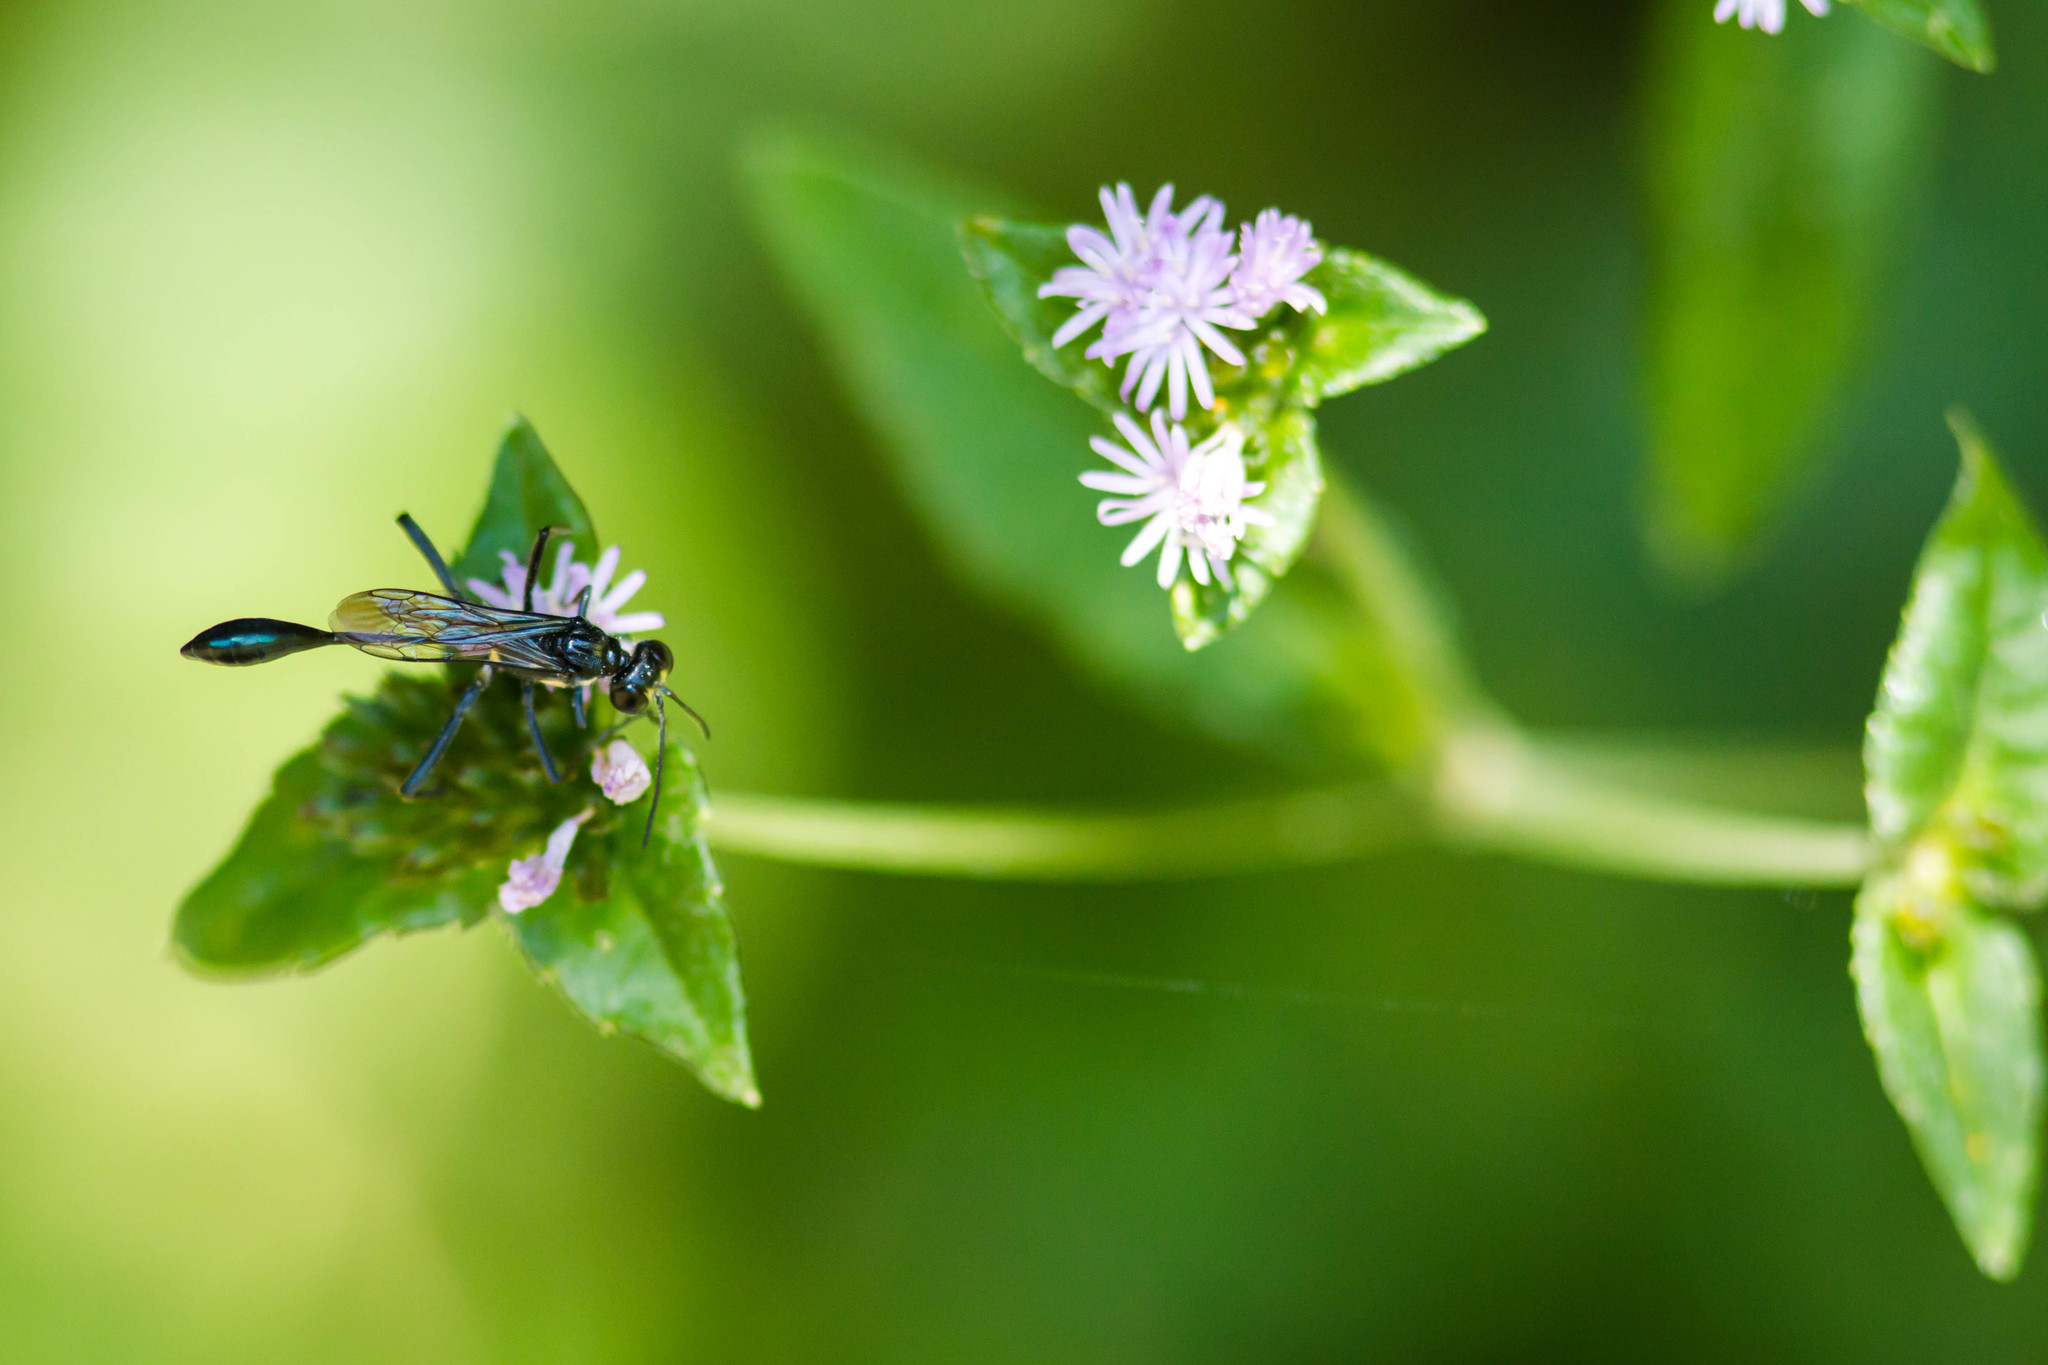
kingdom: Animalia
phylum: Arthropoda
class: Insecta
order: Hymenoptera
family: Sphecidae
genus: Eremnophila
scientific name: Eremnophila aureonotata
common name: Gold-marked thread-waisted wasp
